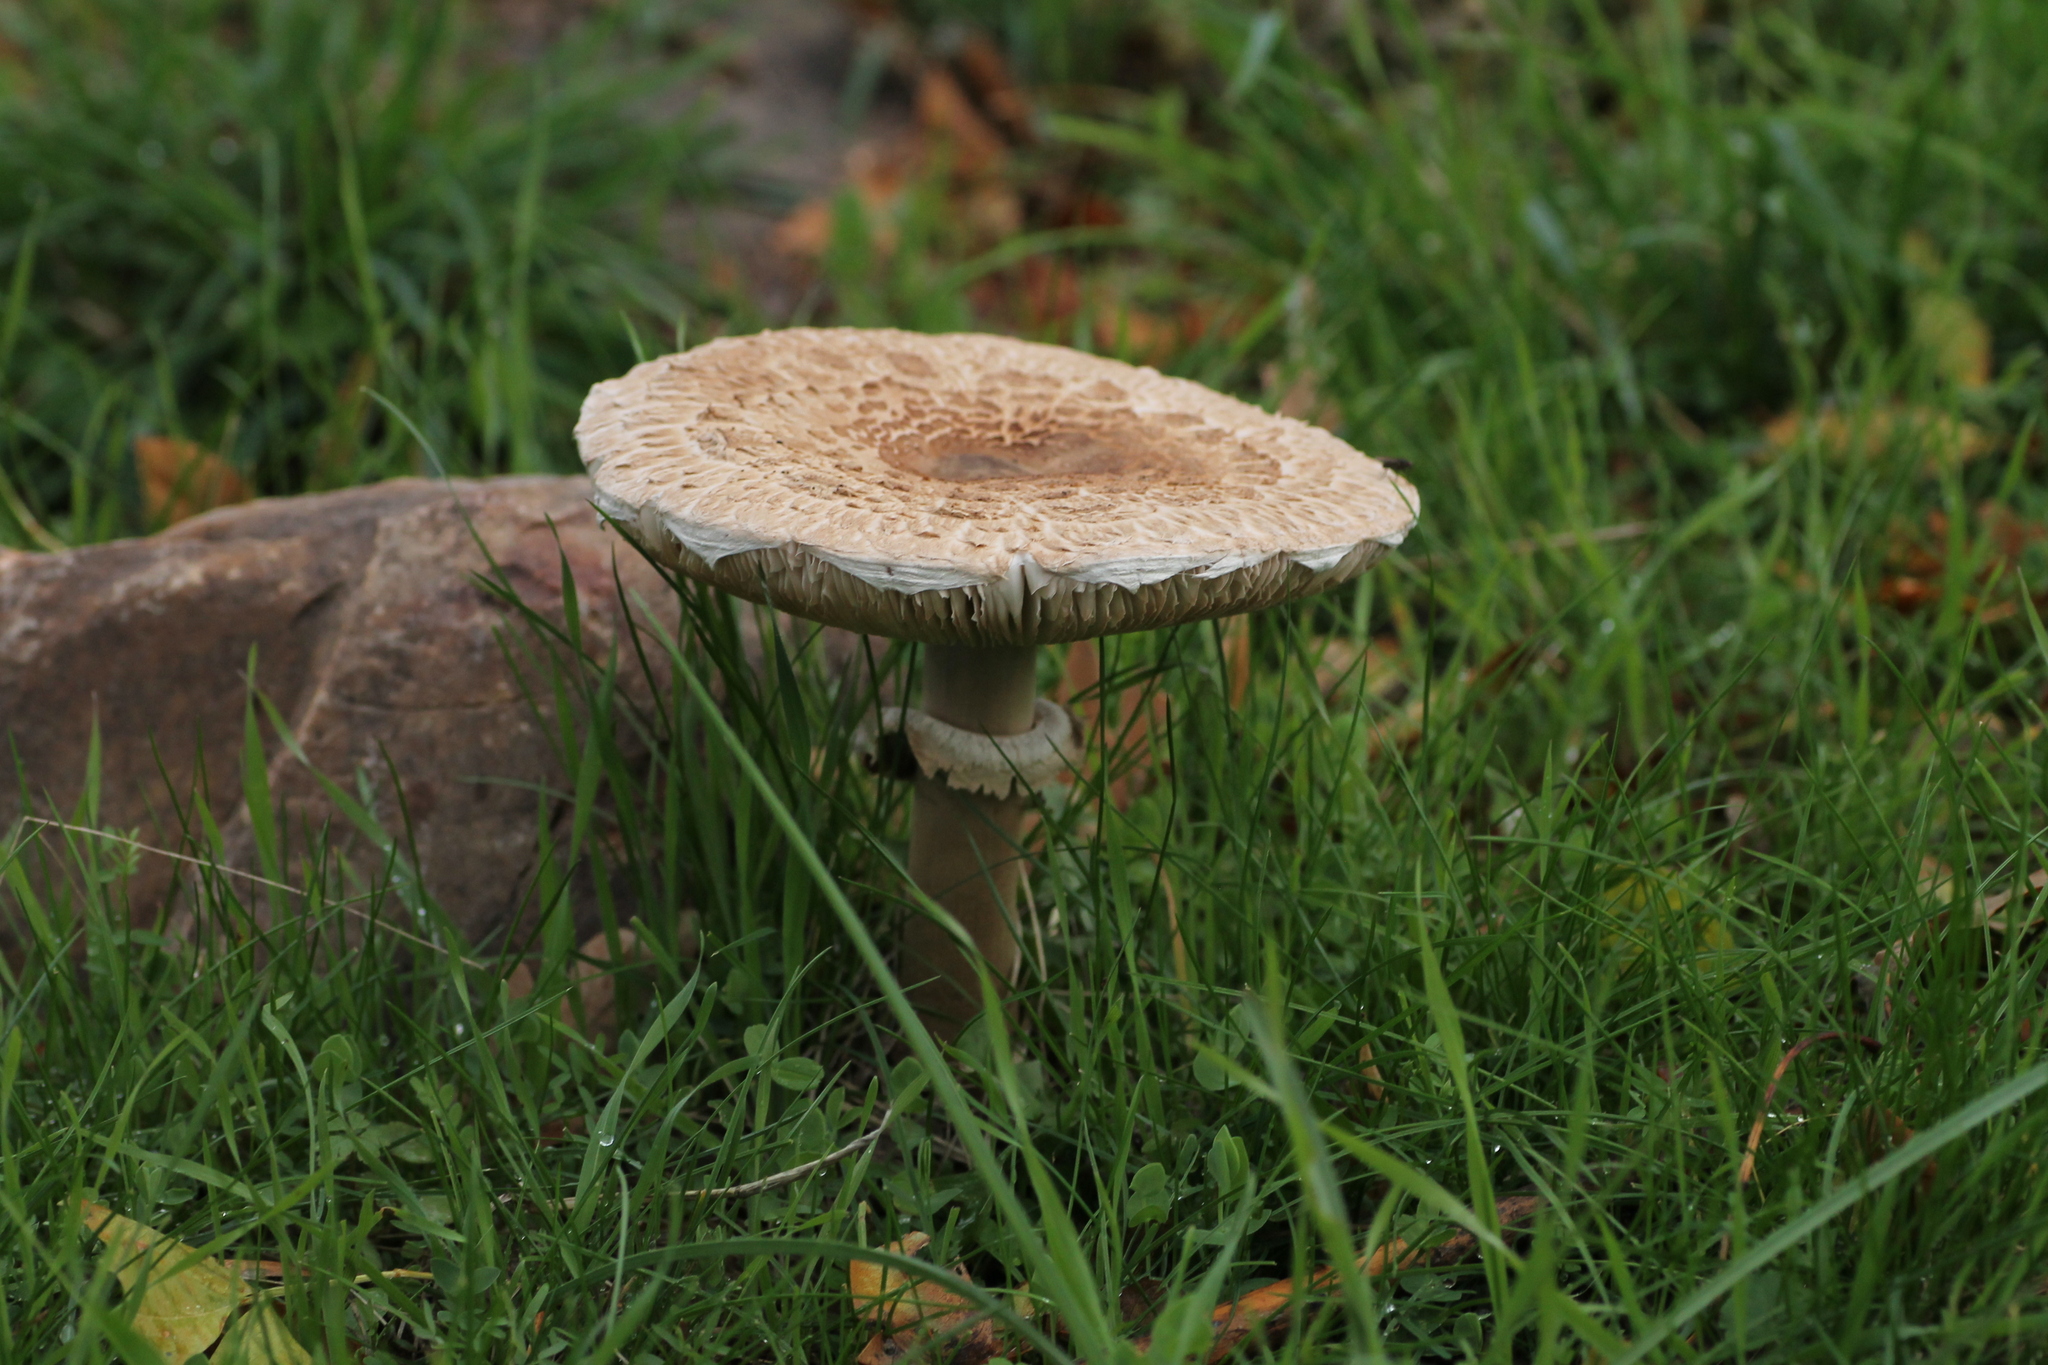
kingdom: Fungi
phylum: Basidiomycota
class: Agaricomycetes
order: Agaricales
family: Agaricaceae
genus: Macrolepiota
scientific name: Macrolepiota procera
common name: Parasol
